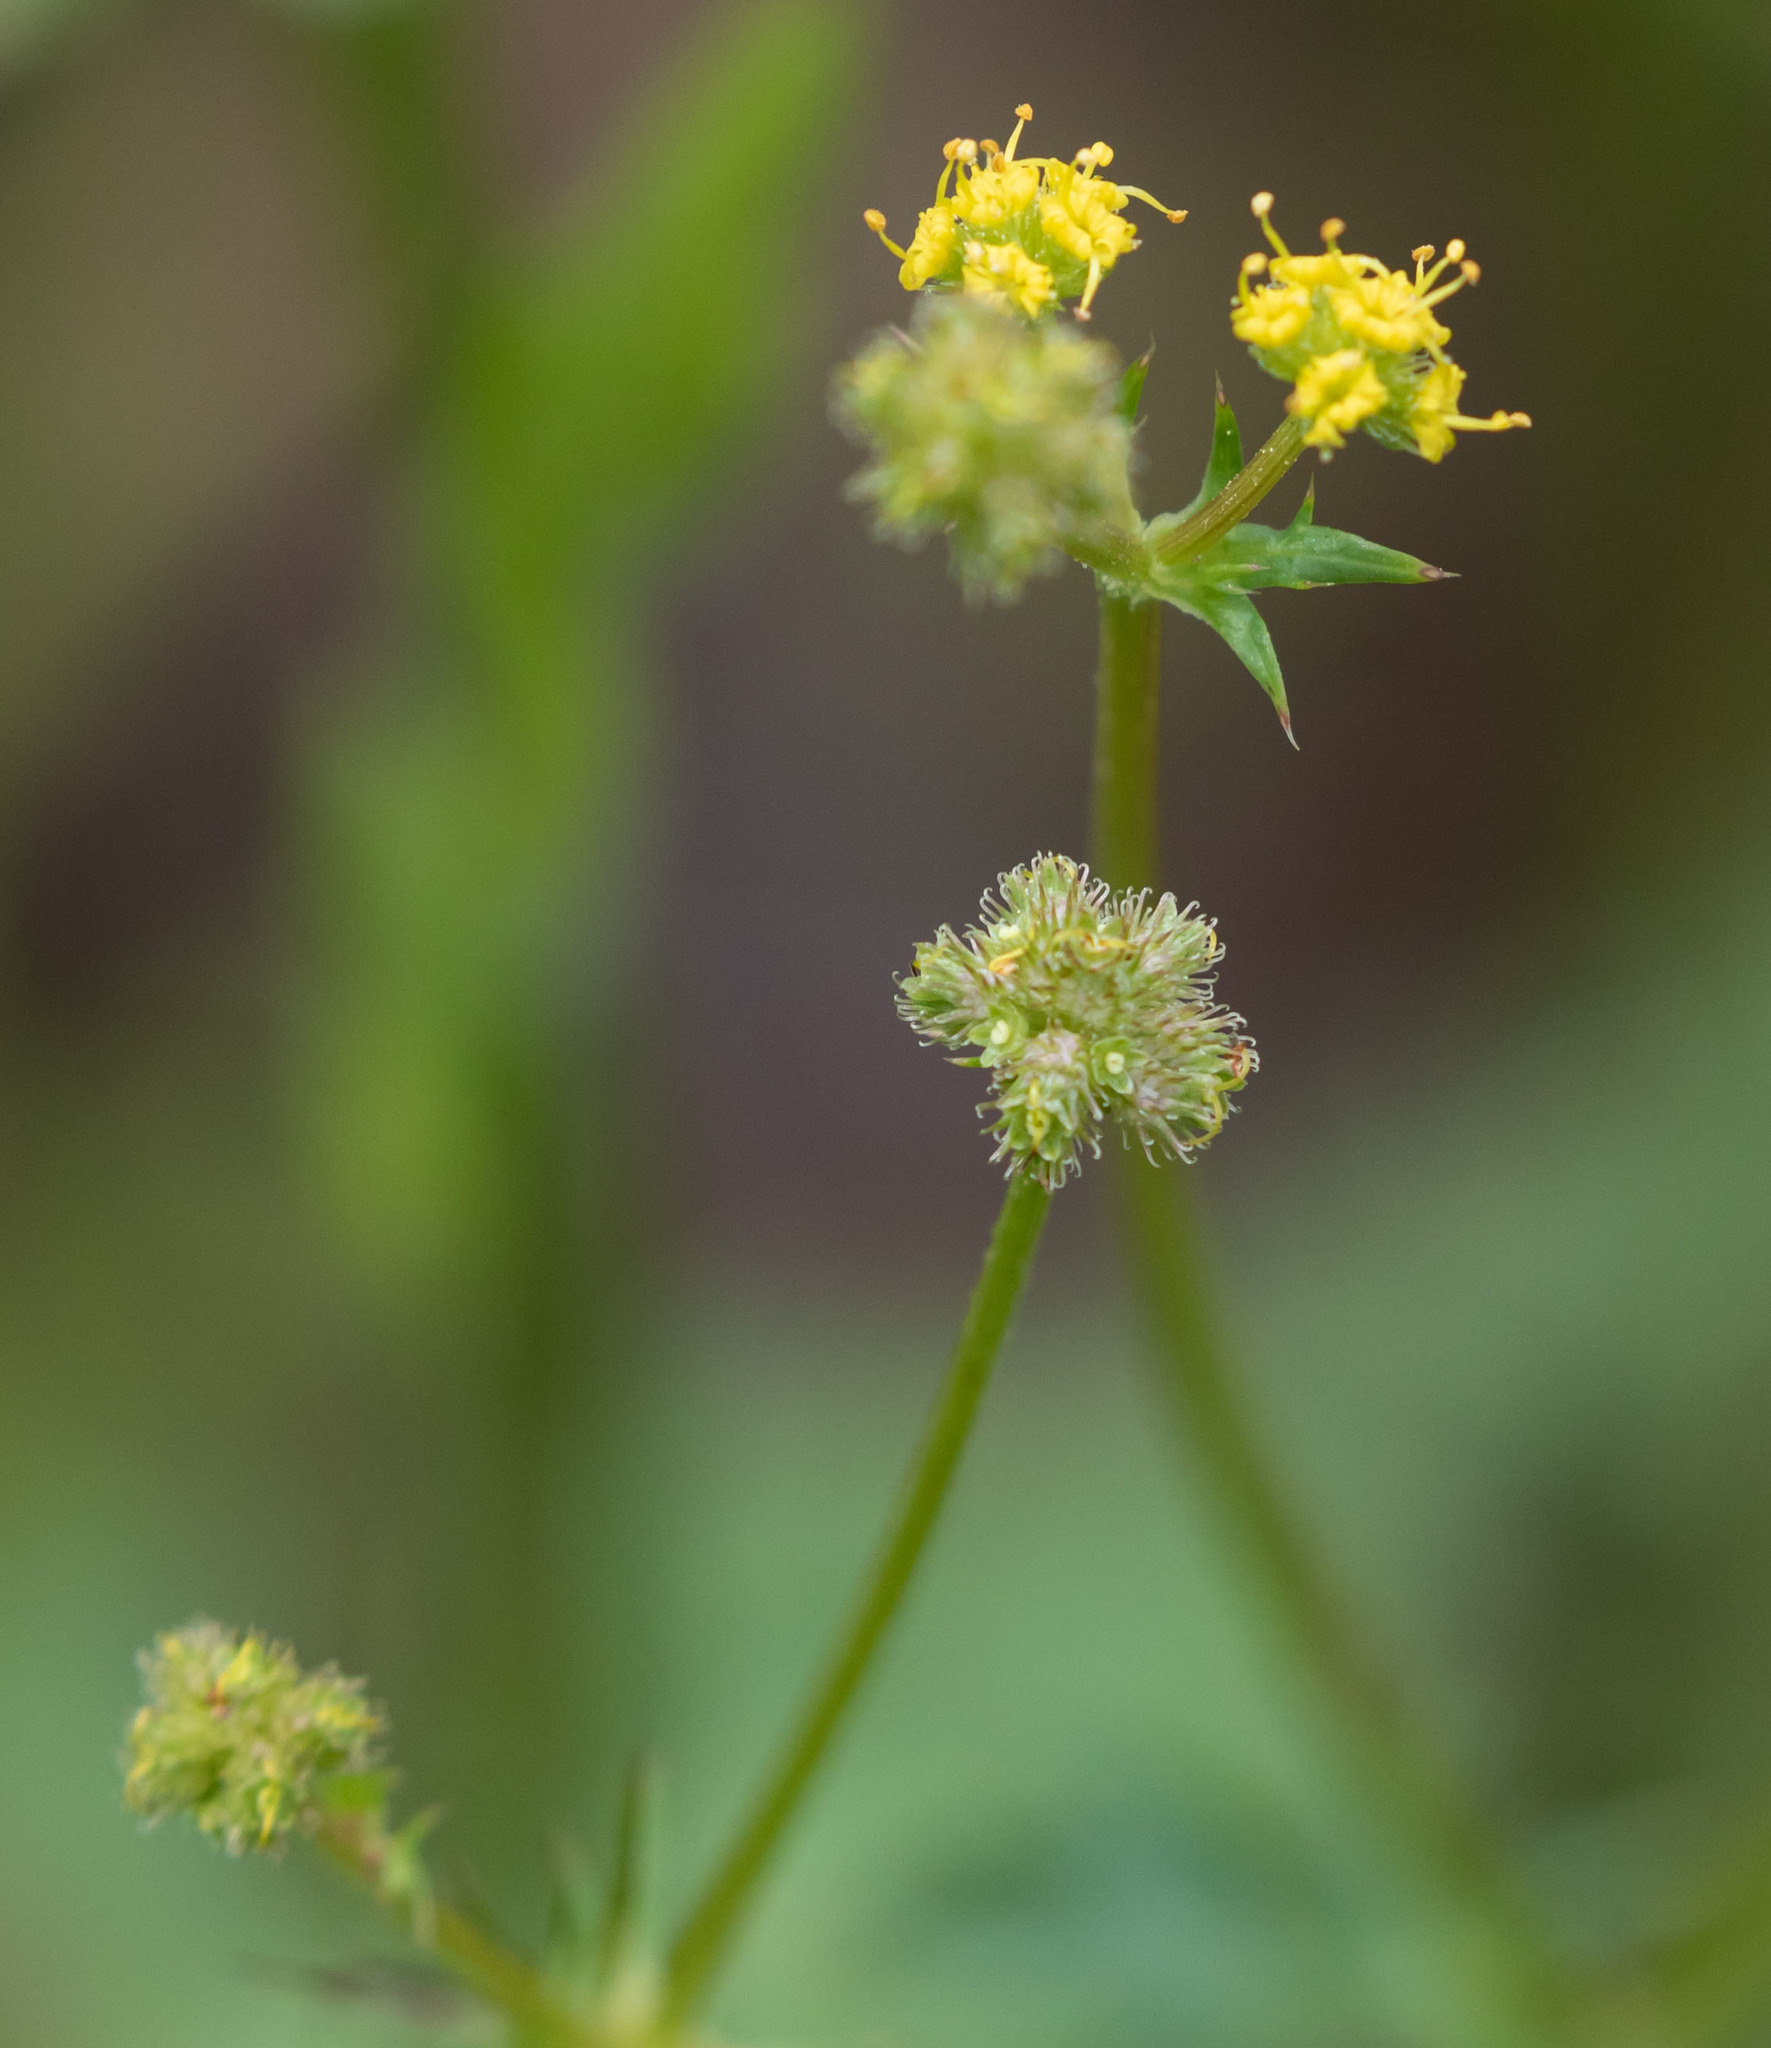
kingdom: Plantae
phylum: Tracheophyta
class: Magnoliopsida
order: Apiales
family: Apiaceae
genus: Sanicula
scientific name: Sanicula crassicaulis
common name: Western snakeroot
